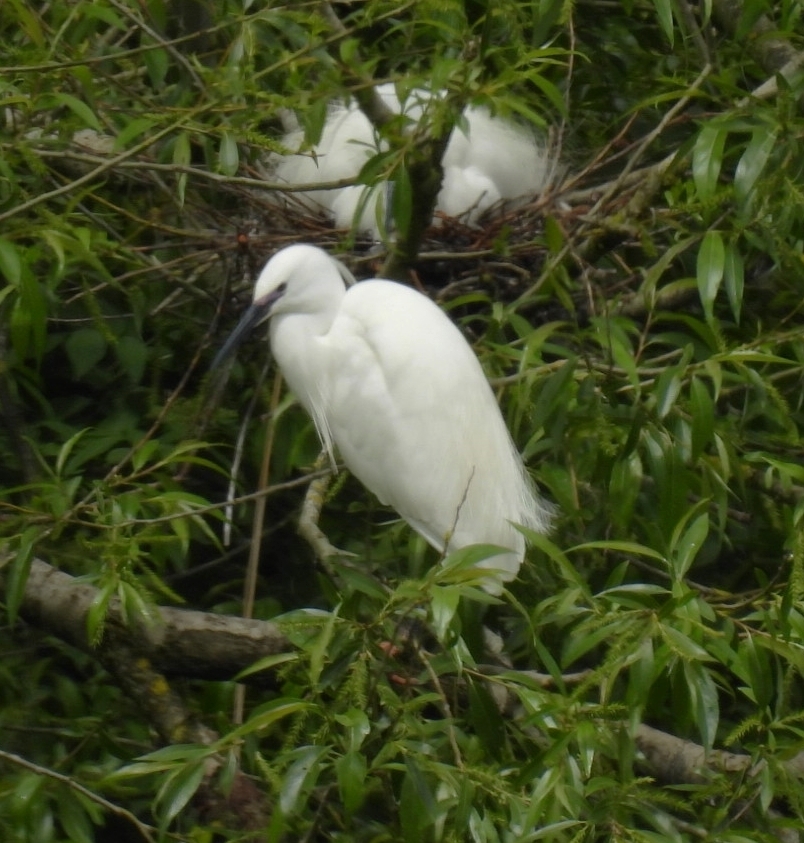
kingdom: Animalia
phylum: Chordata
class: Aves
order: Pelecaniformes
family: Ardeidae
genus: Egretta
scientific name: Egretta garzetta
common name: Little egret
